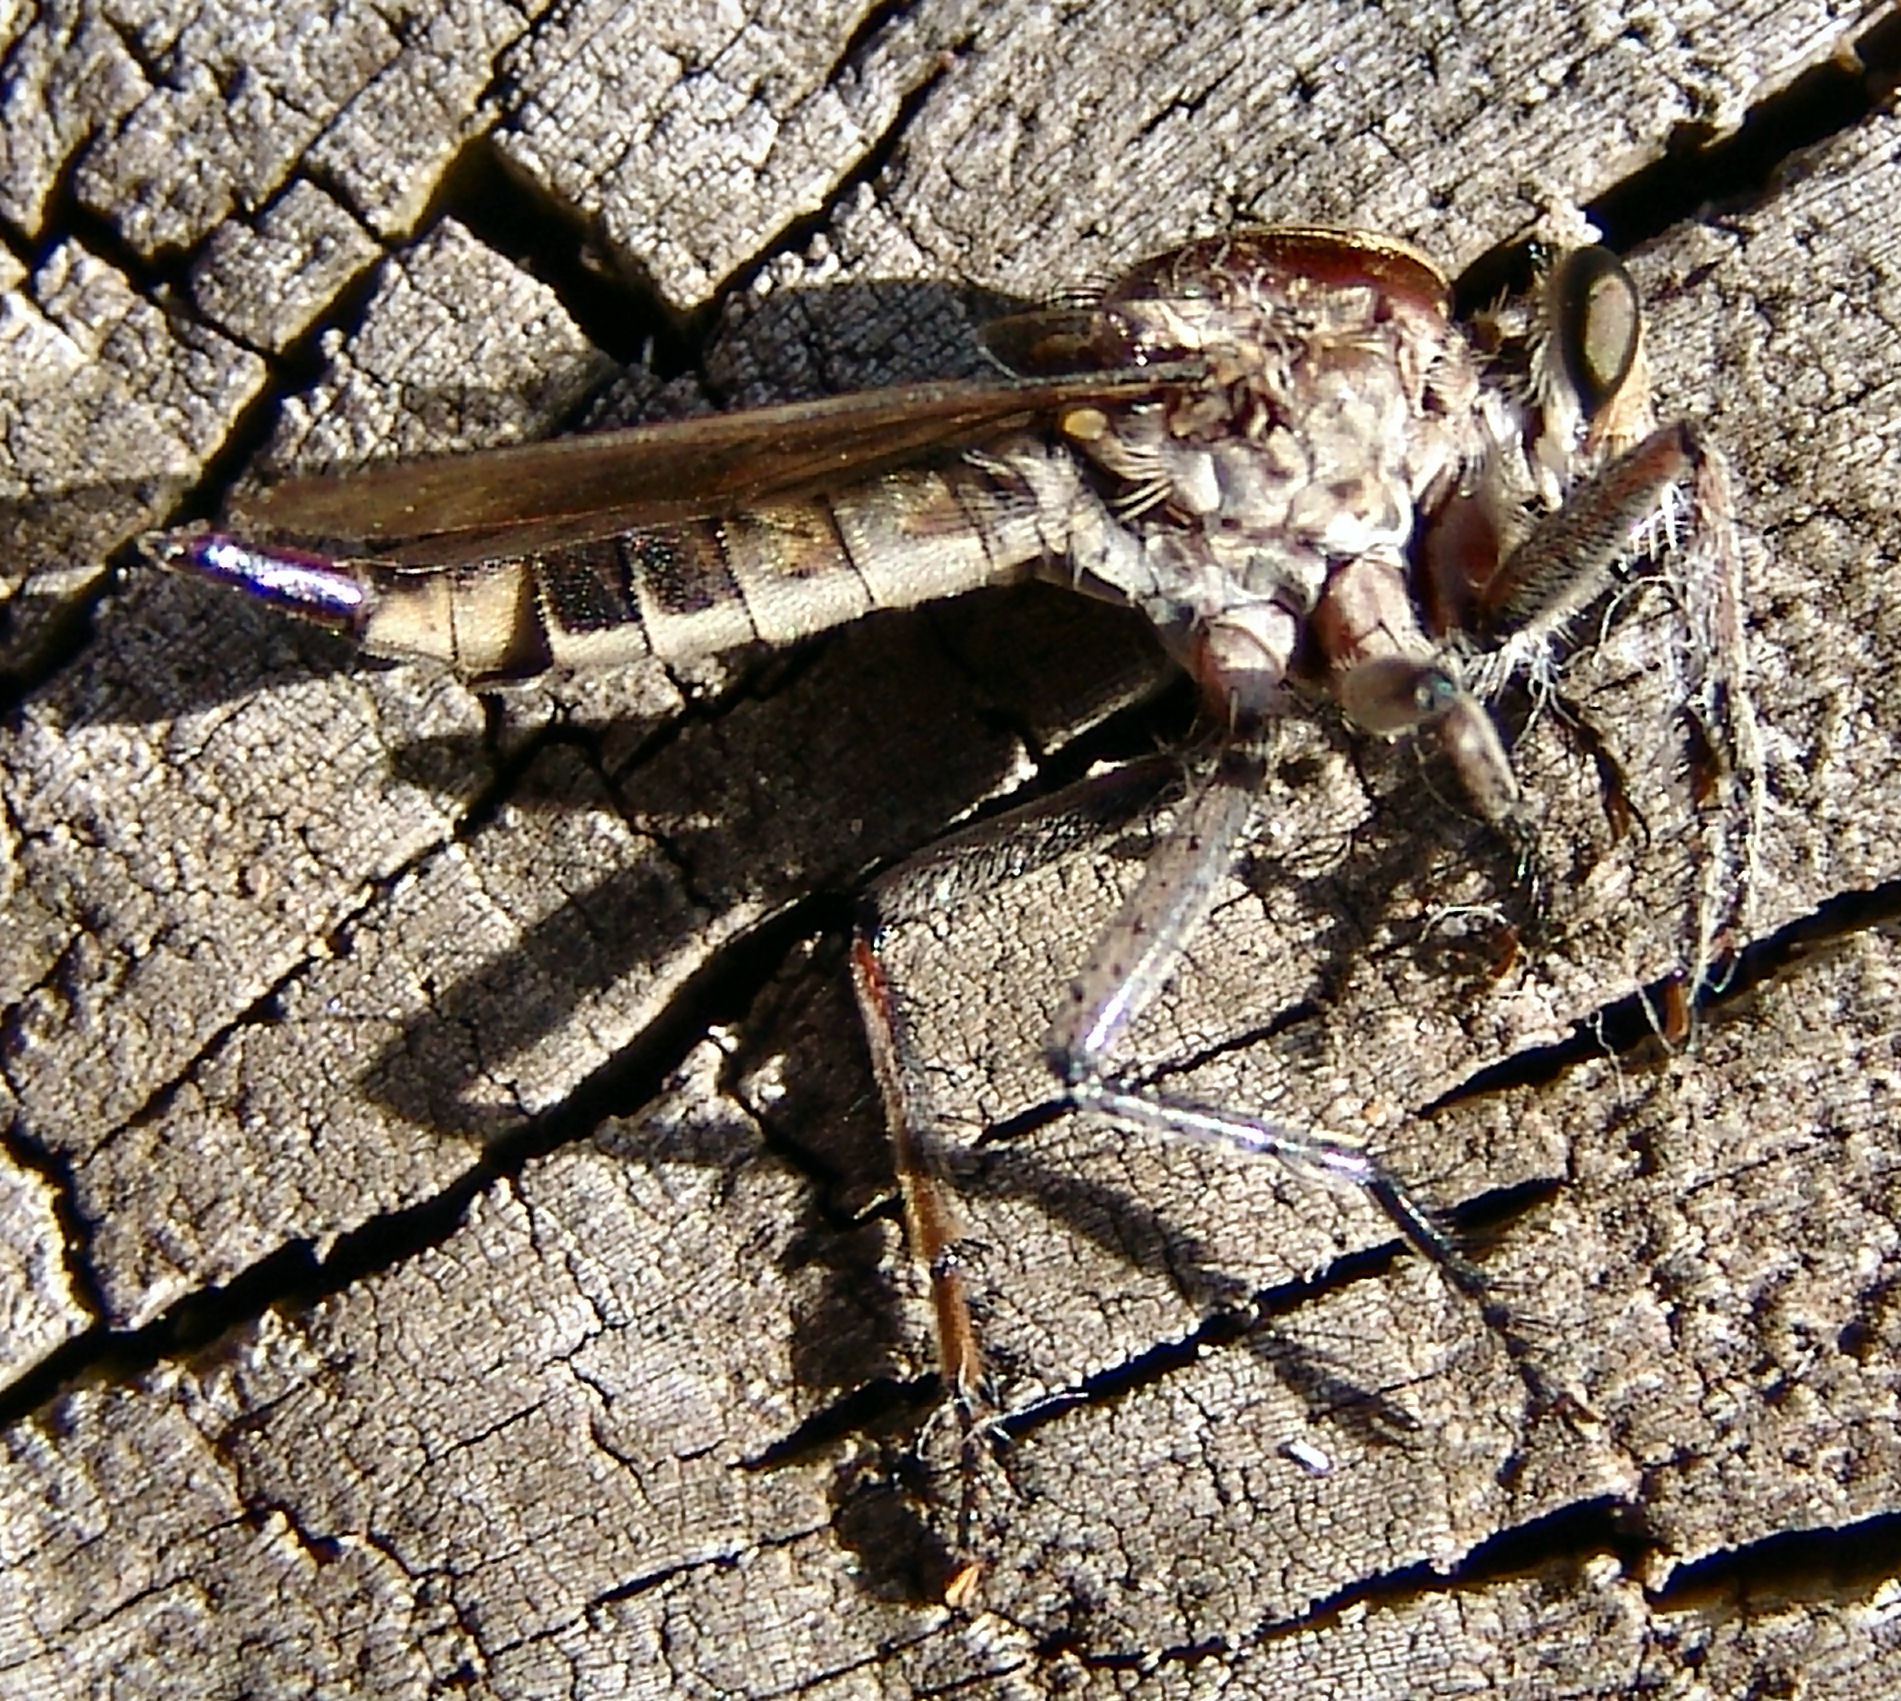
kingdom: Animalia
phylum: Arthropoda
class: Insecta
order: Diptera
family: Asilidae
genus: Triorla
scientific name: Triorla interrupta
